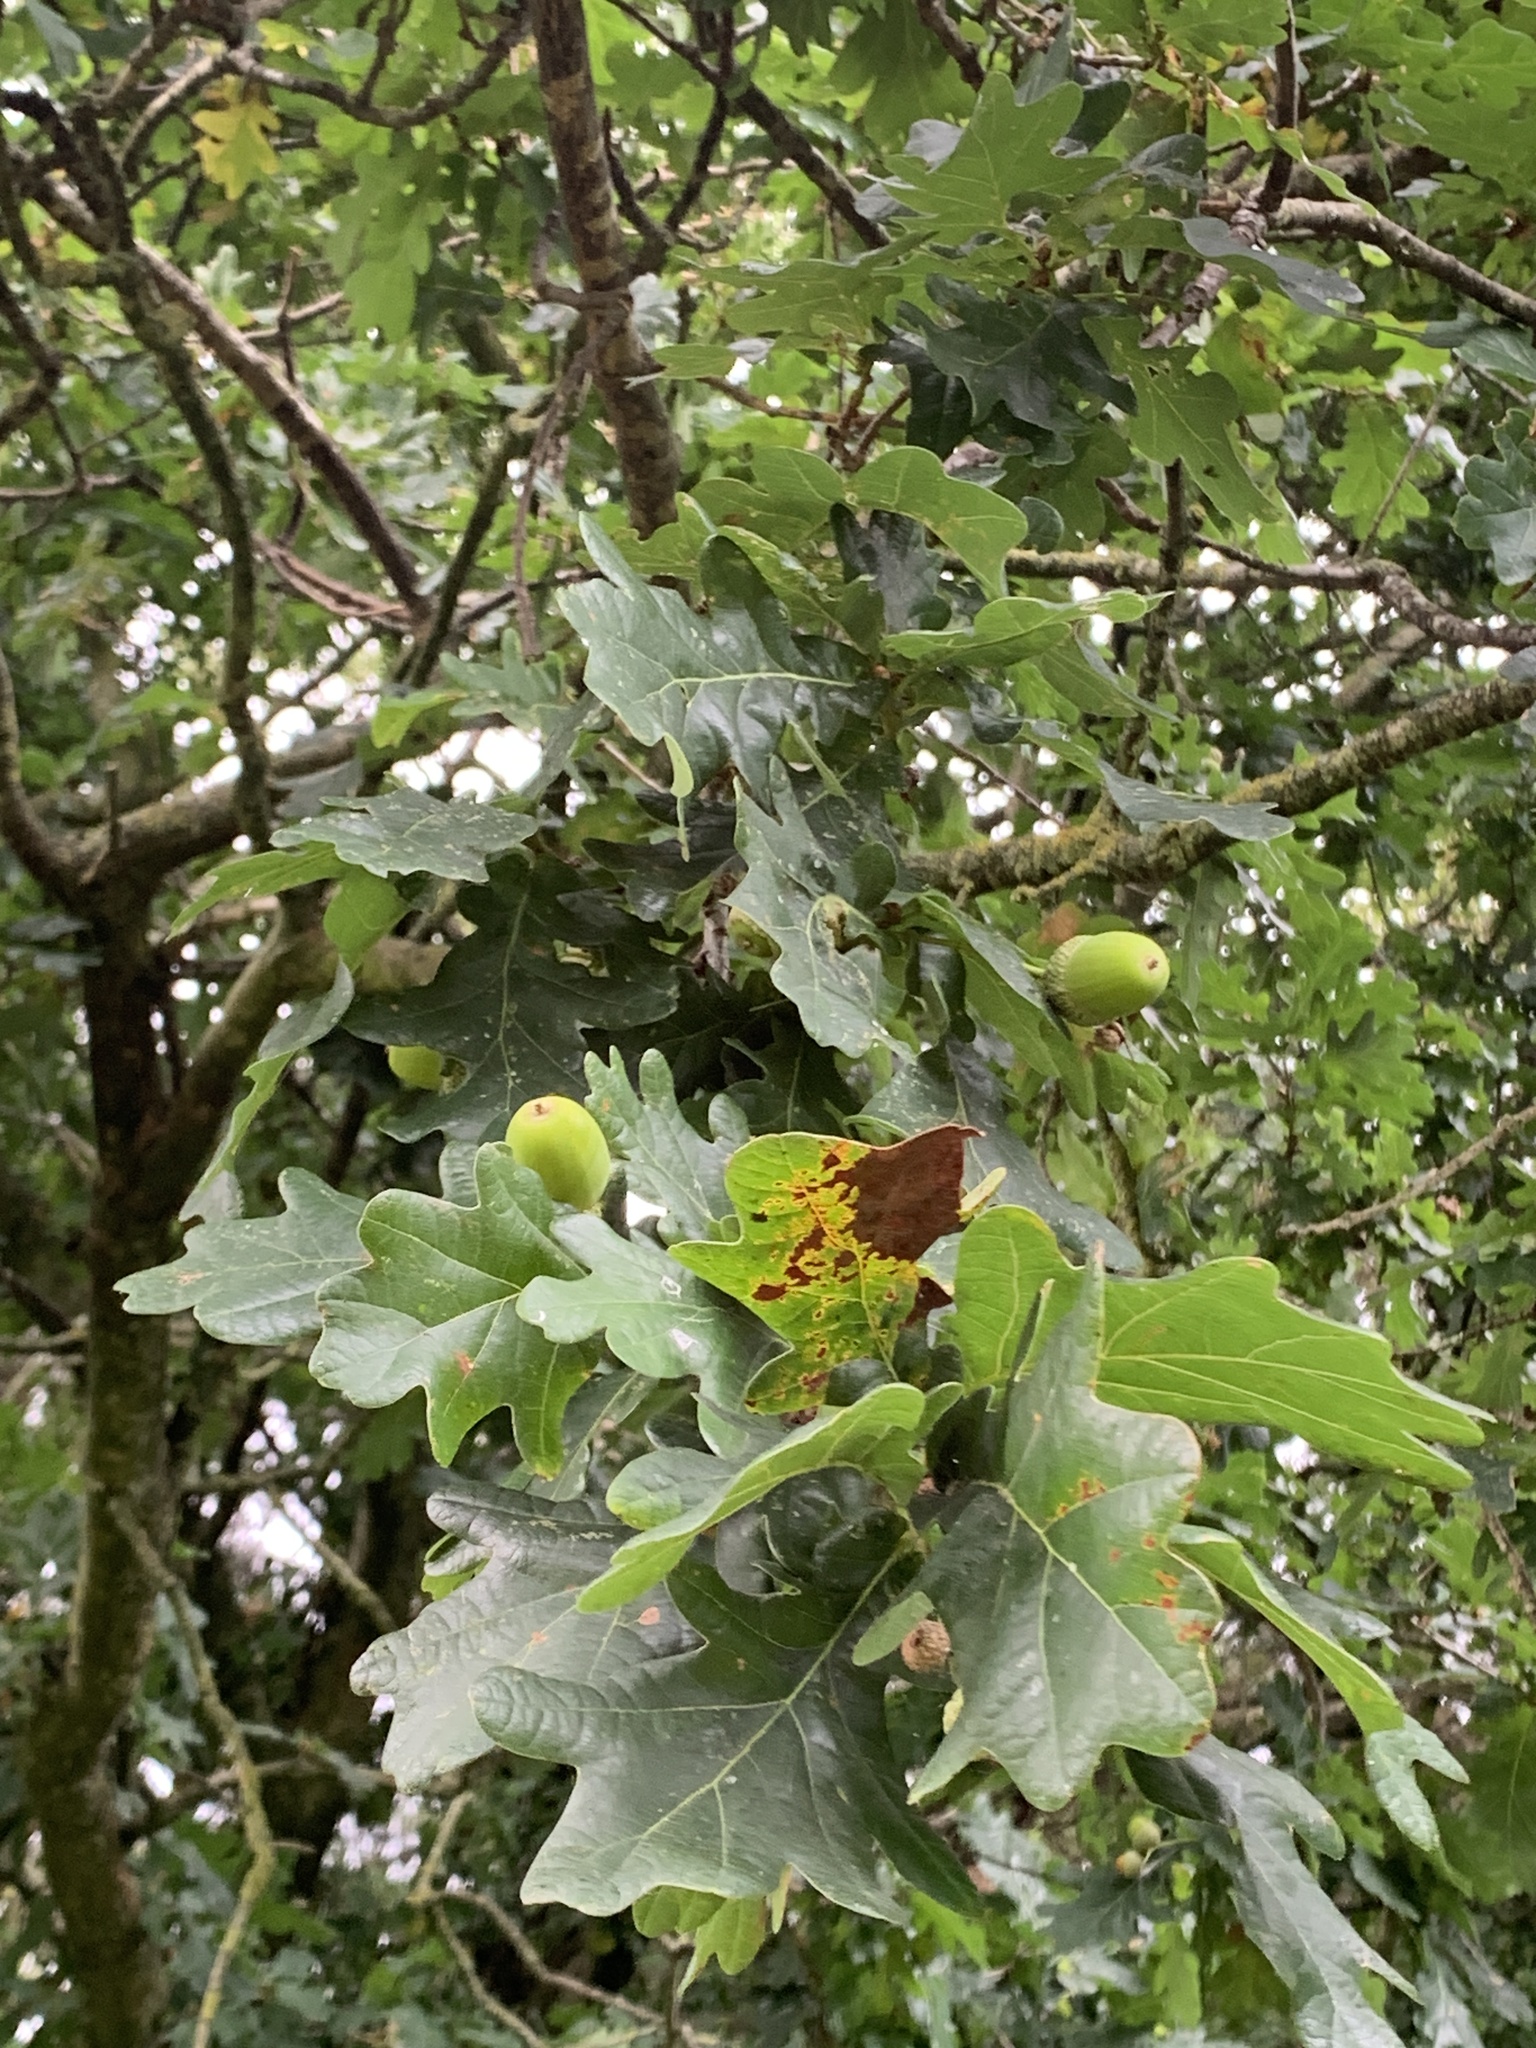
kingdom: Plantae
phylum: Tracheophyta
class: Magnoliopsida
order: Fagales
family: Fagaceae
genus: Quercus
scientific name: Quercus robur
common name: Pedunculate oak
